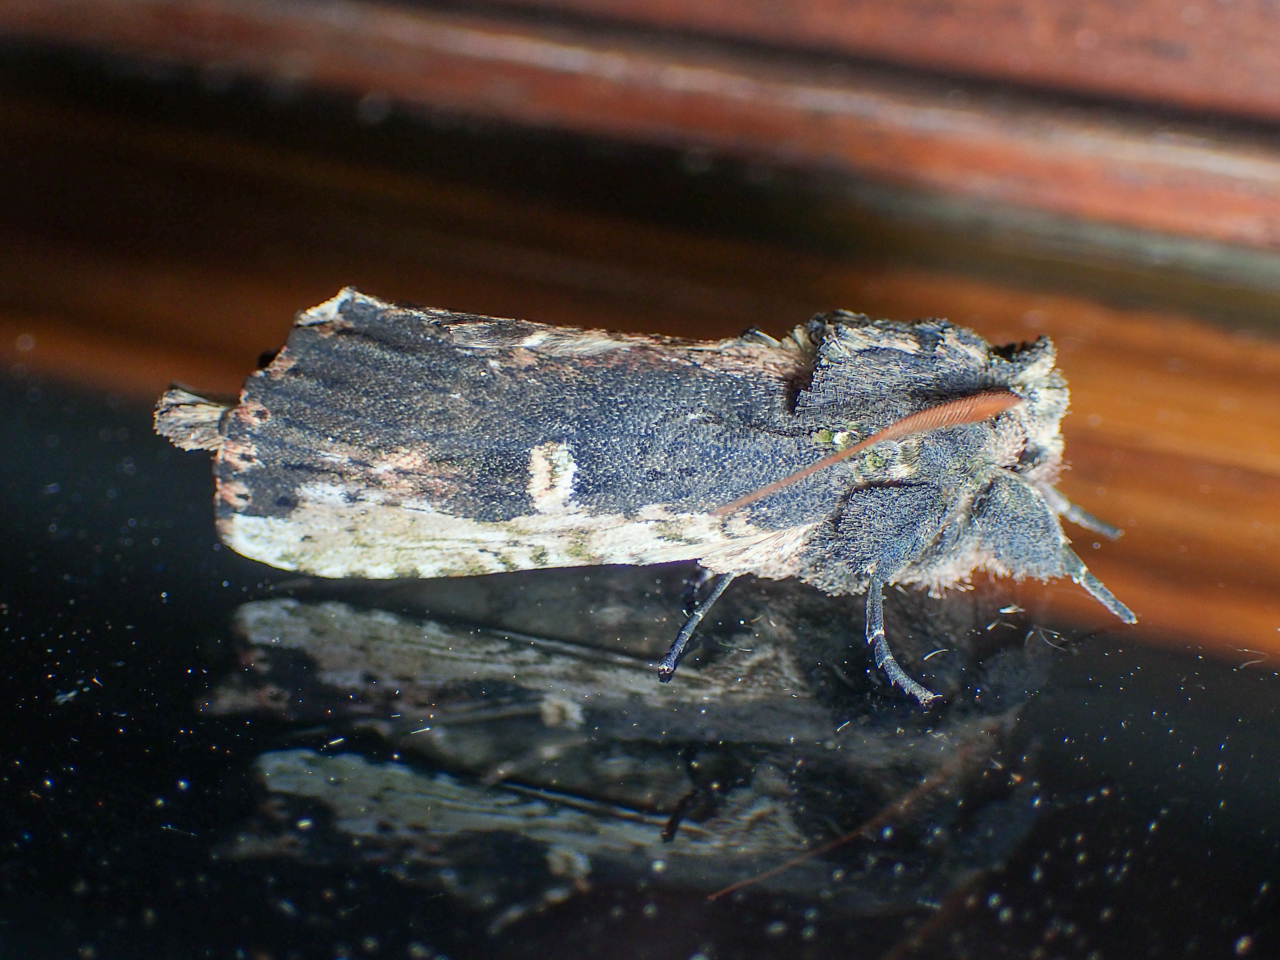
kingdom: Animalia
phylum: Arthropoda
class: Insecta
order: Lepidoptera
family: Notodontidae
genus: Schizura
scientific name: Schizura ipomaeae
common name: Morning-glory prominent
